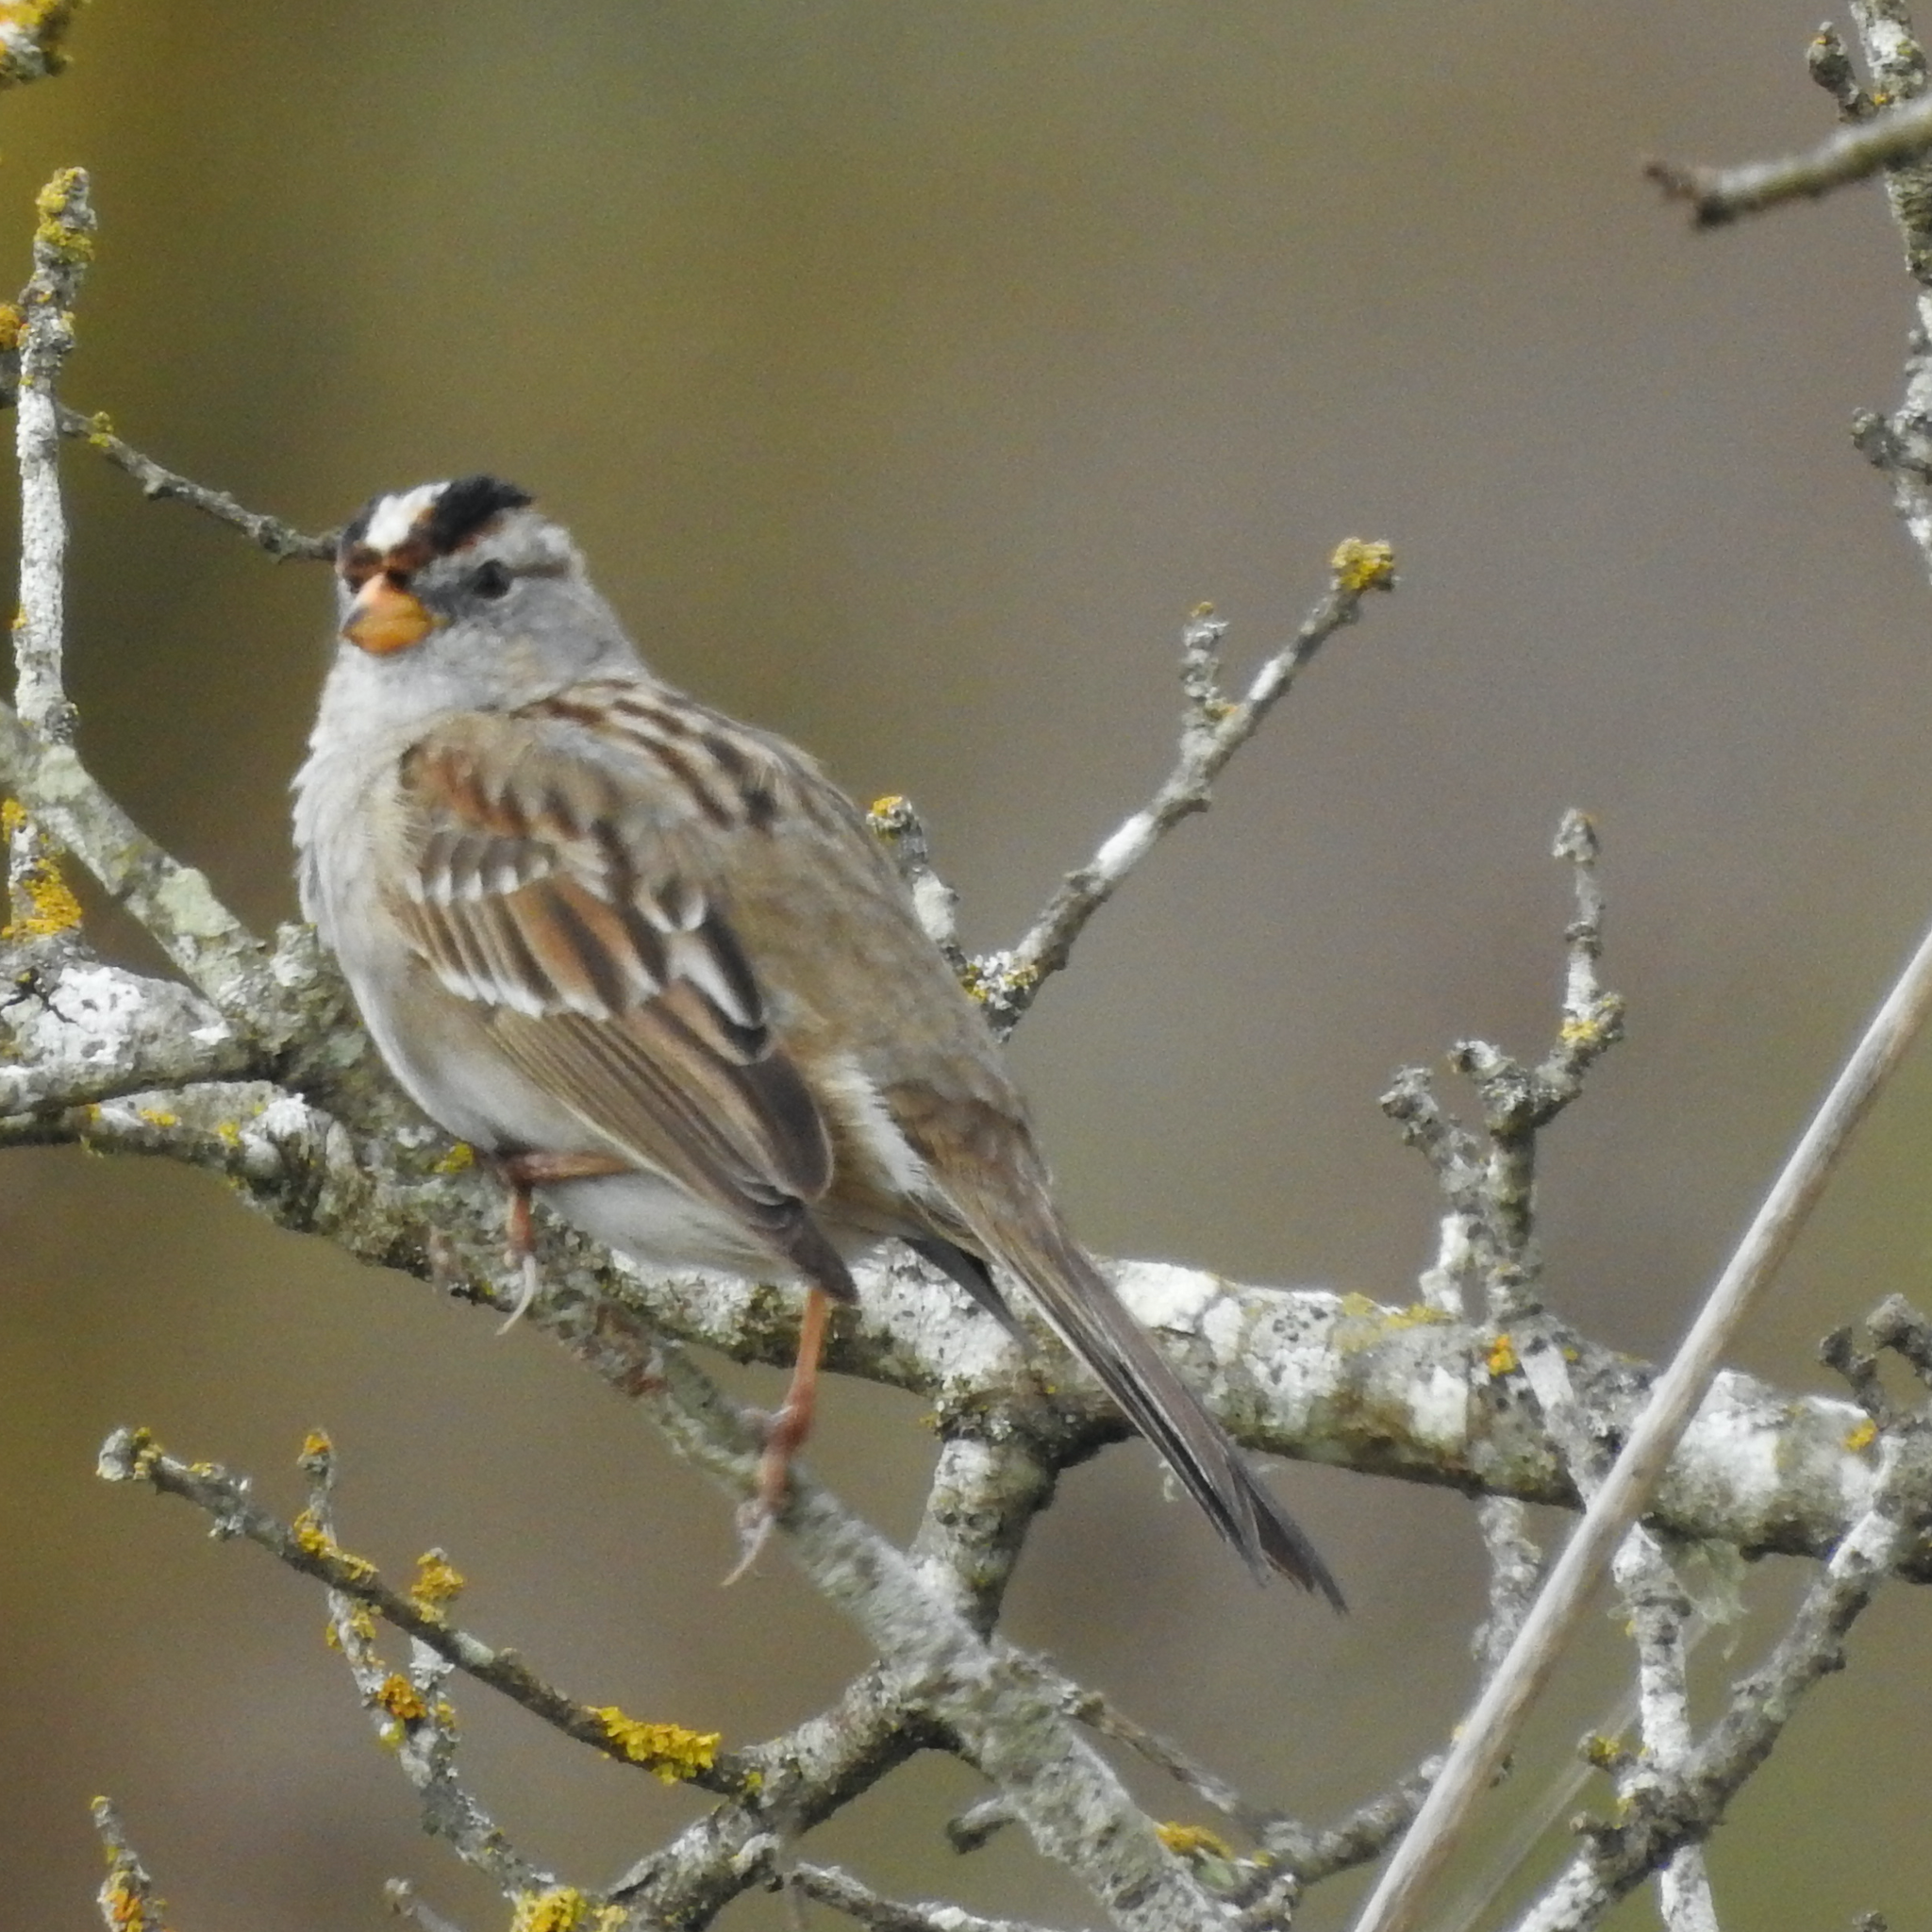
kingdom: Animalia
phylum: Chordata
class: Aves
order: Passeriformes
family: Passerellidae
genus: Zonotrichia
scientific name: Zonotrichia leucophrys
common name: White-crowned sparrow
